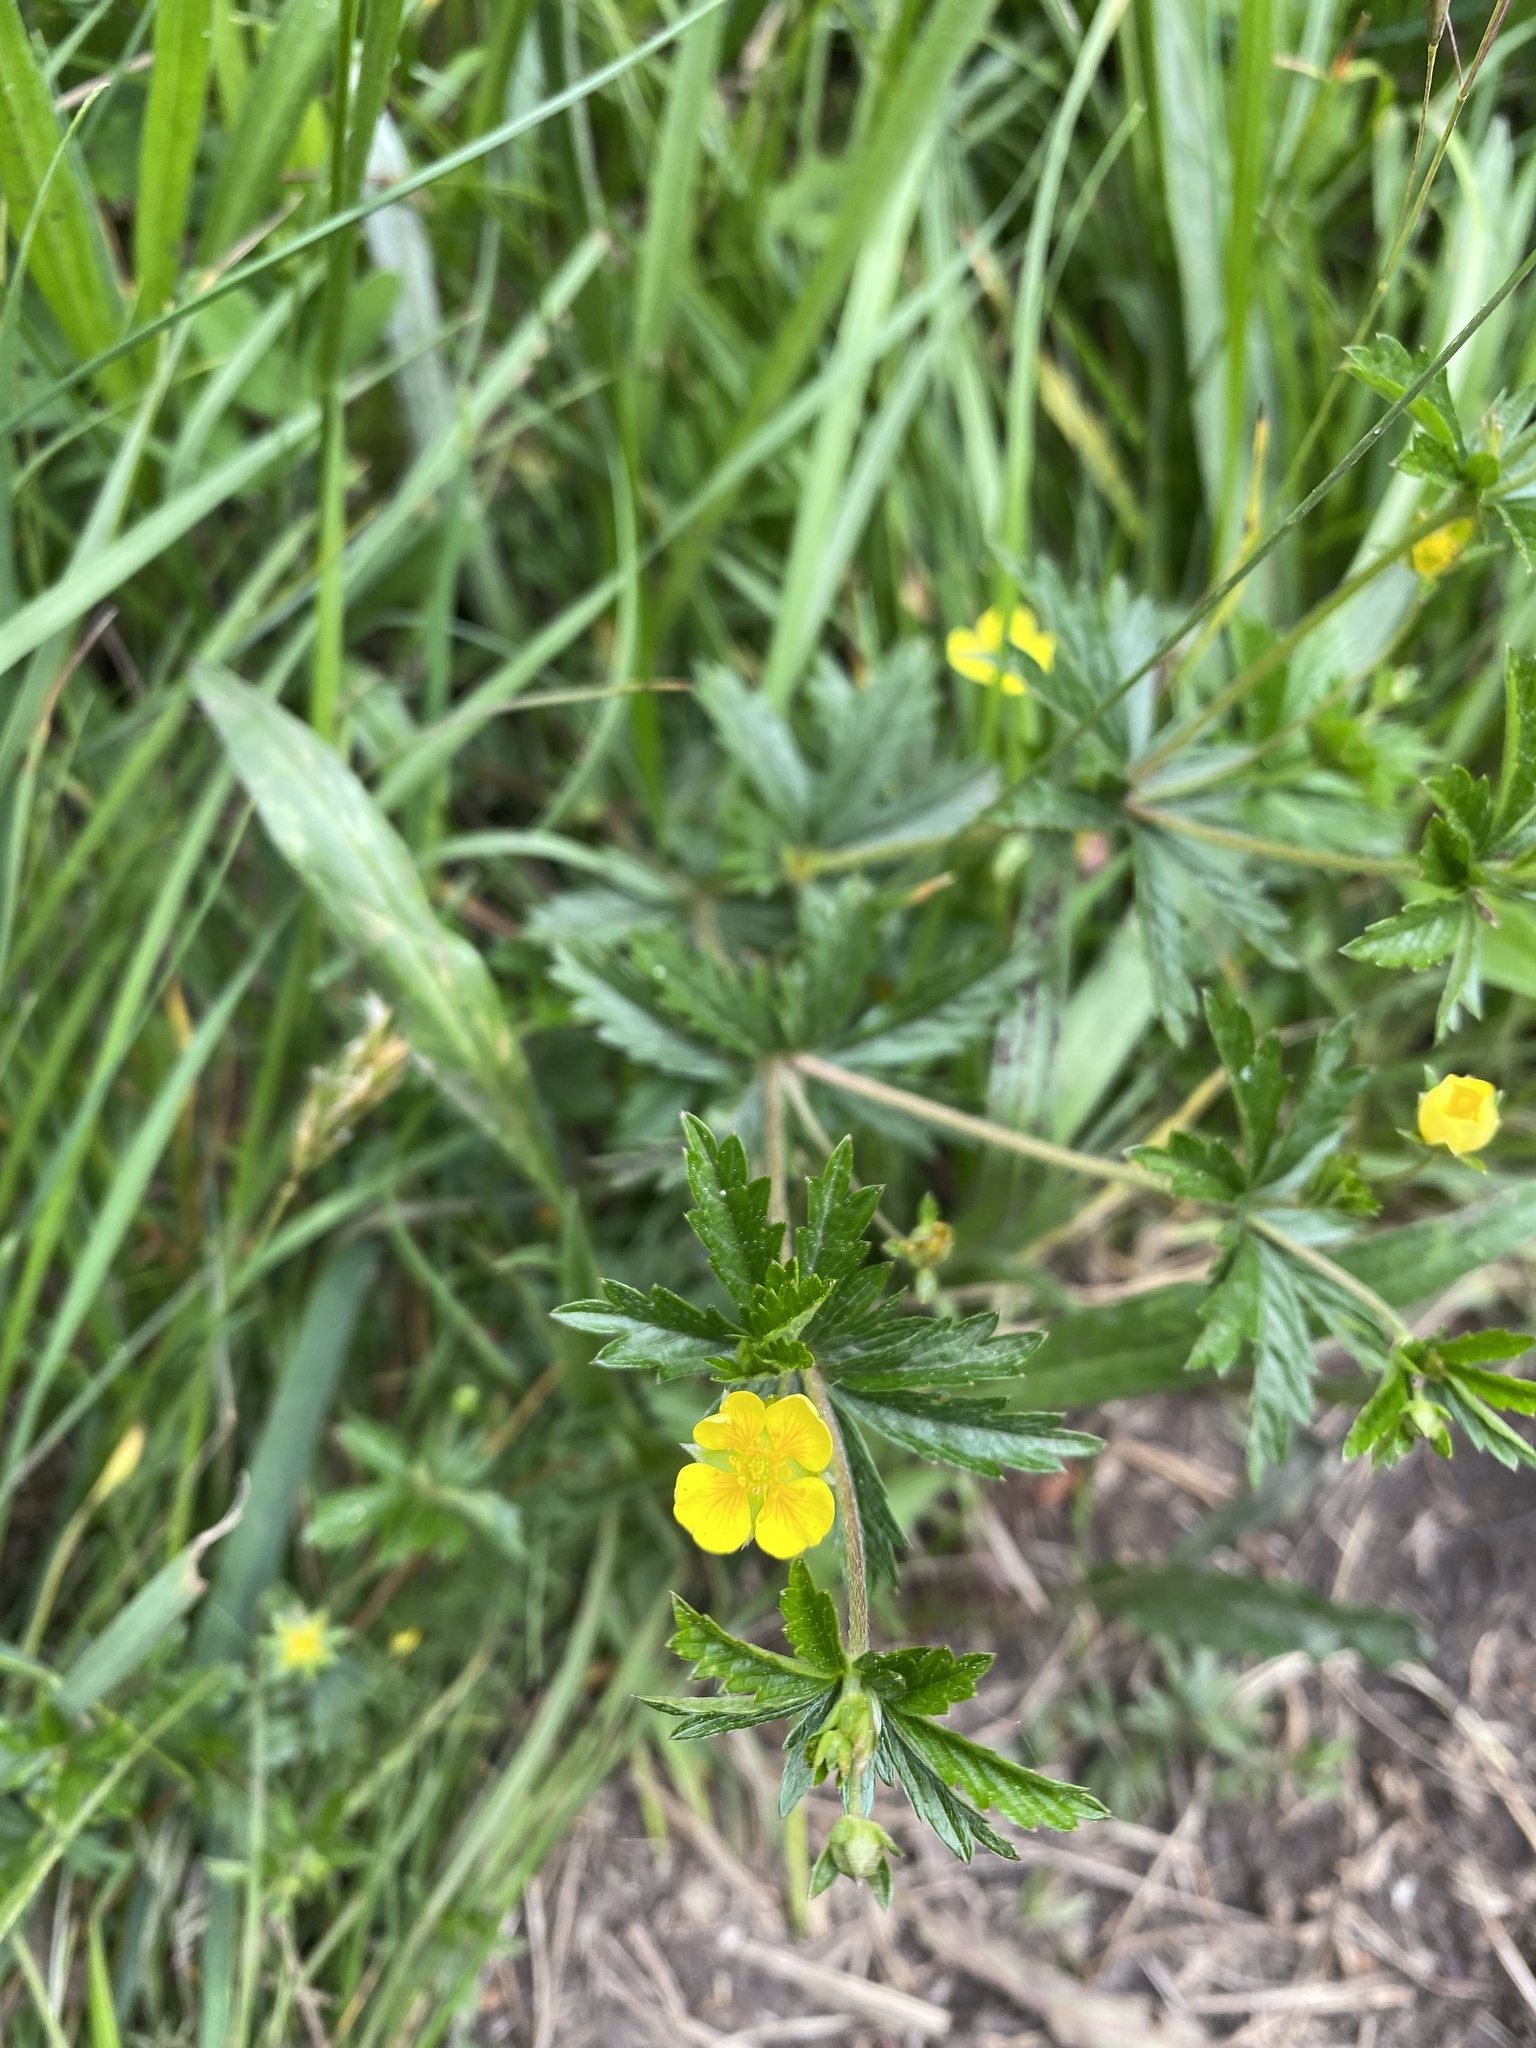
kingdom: Plantae
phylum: Tracheophyta
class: Magnoliopsida
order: Rosales
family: Rosaceae
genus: Potentilla
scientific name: Potentilla erecta
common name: Tormentil
